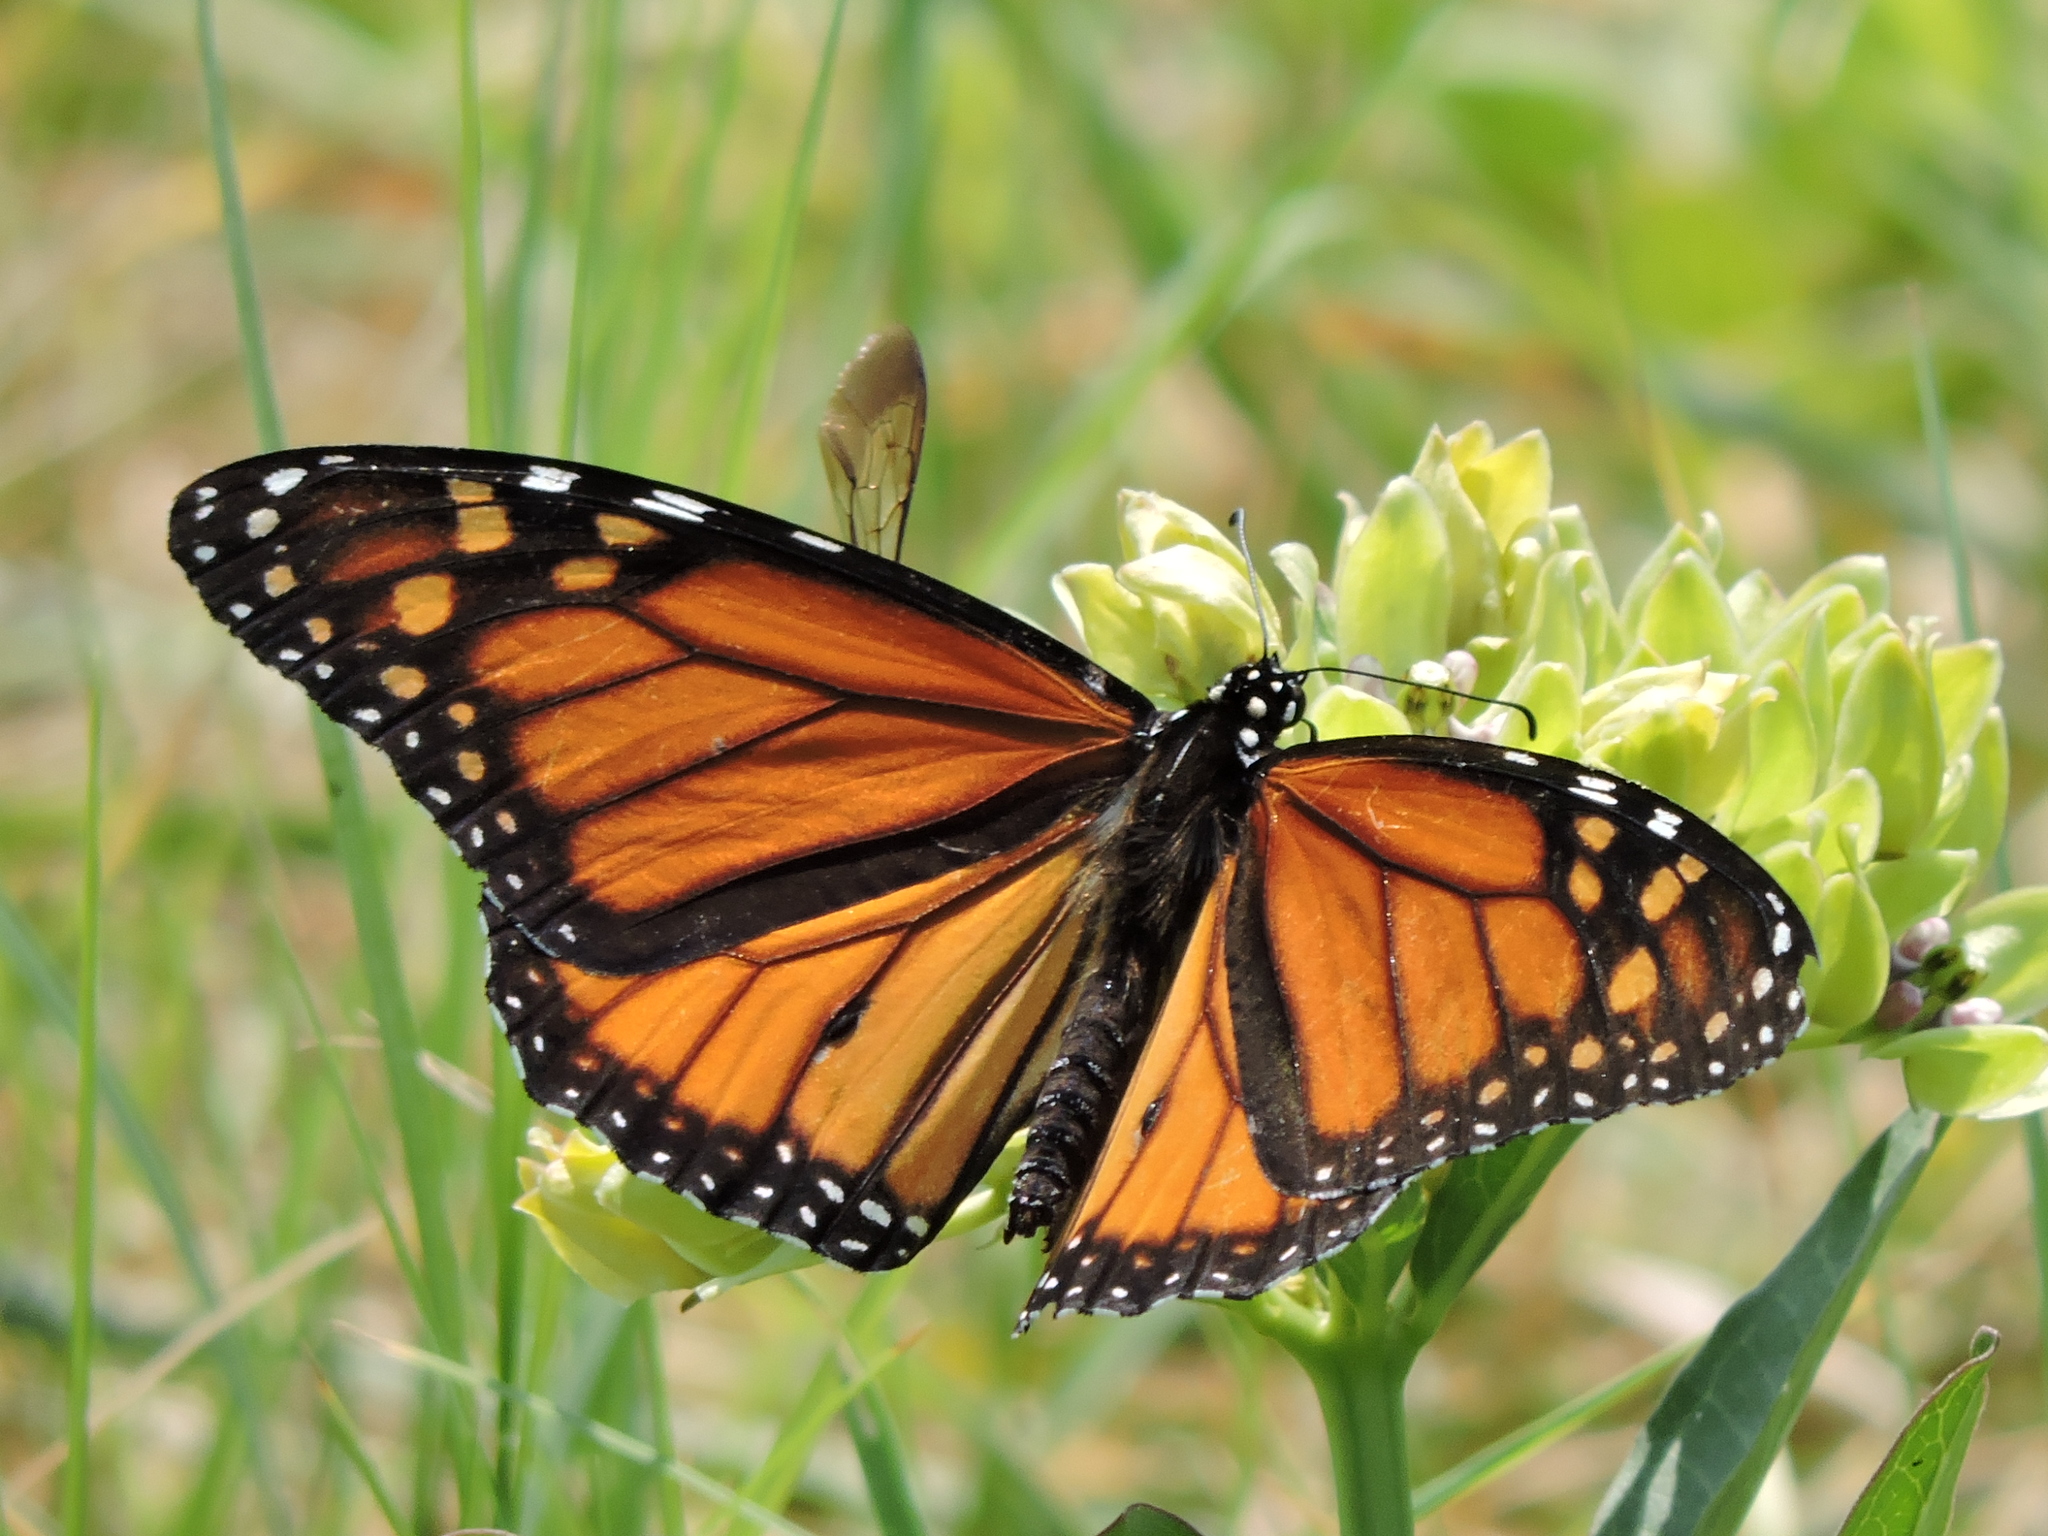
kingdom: Animalia
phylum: Arthropoda
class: Insecta
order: Lepidoptera
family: Nymphalidae
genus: Danaus
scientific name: Danaus plexippus
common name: Monarch
